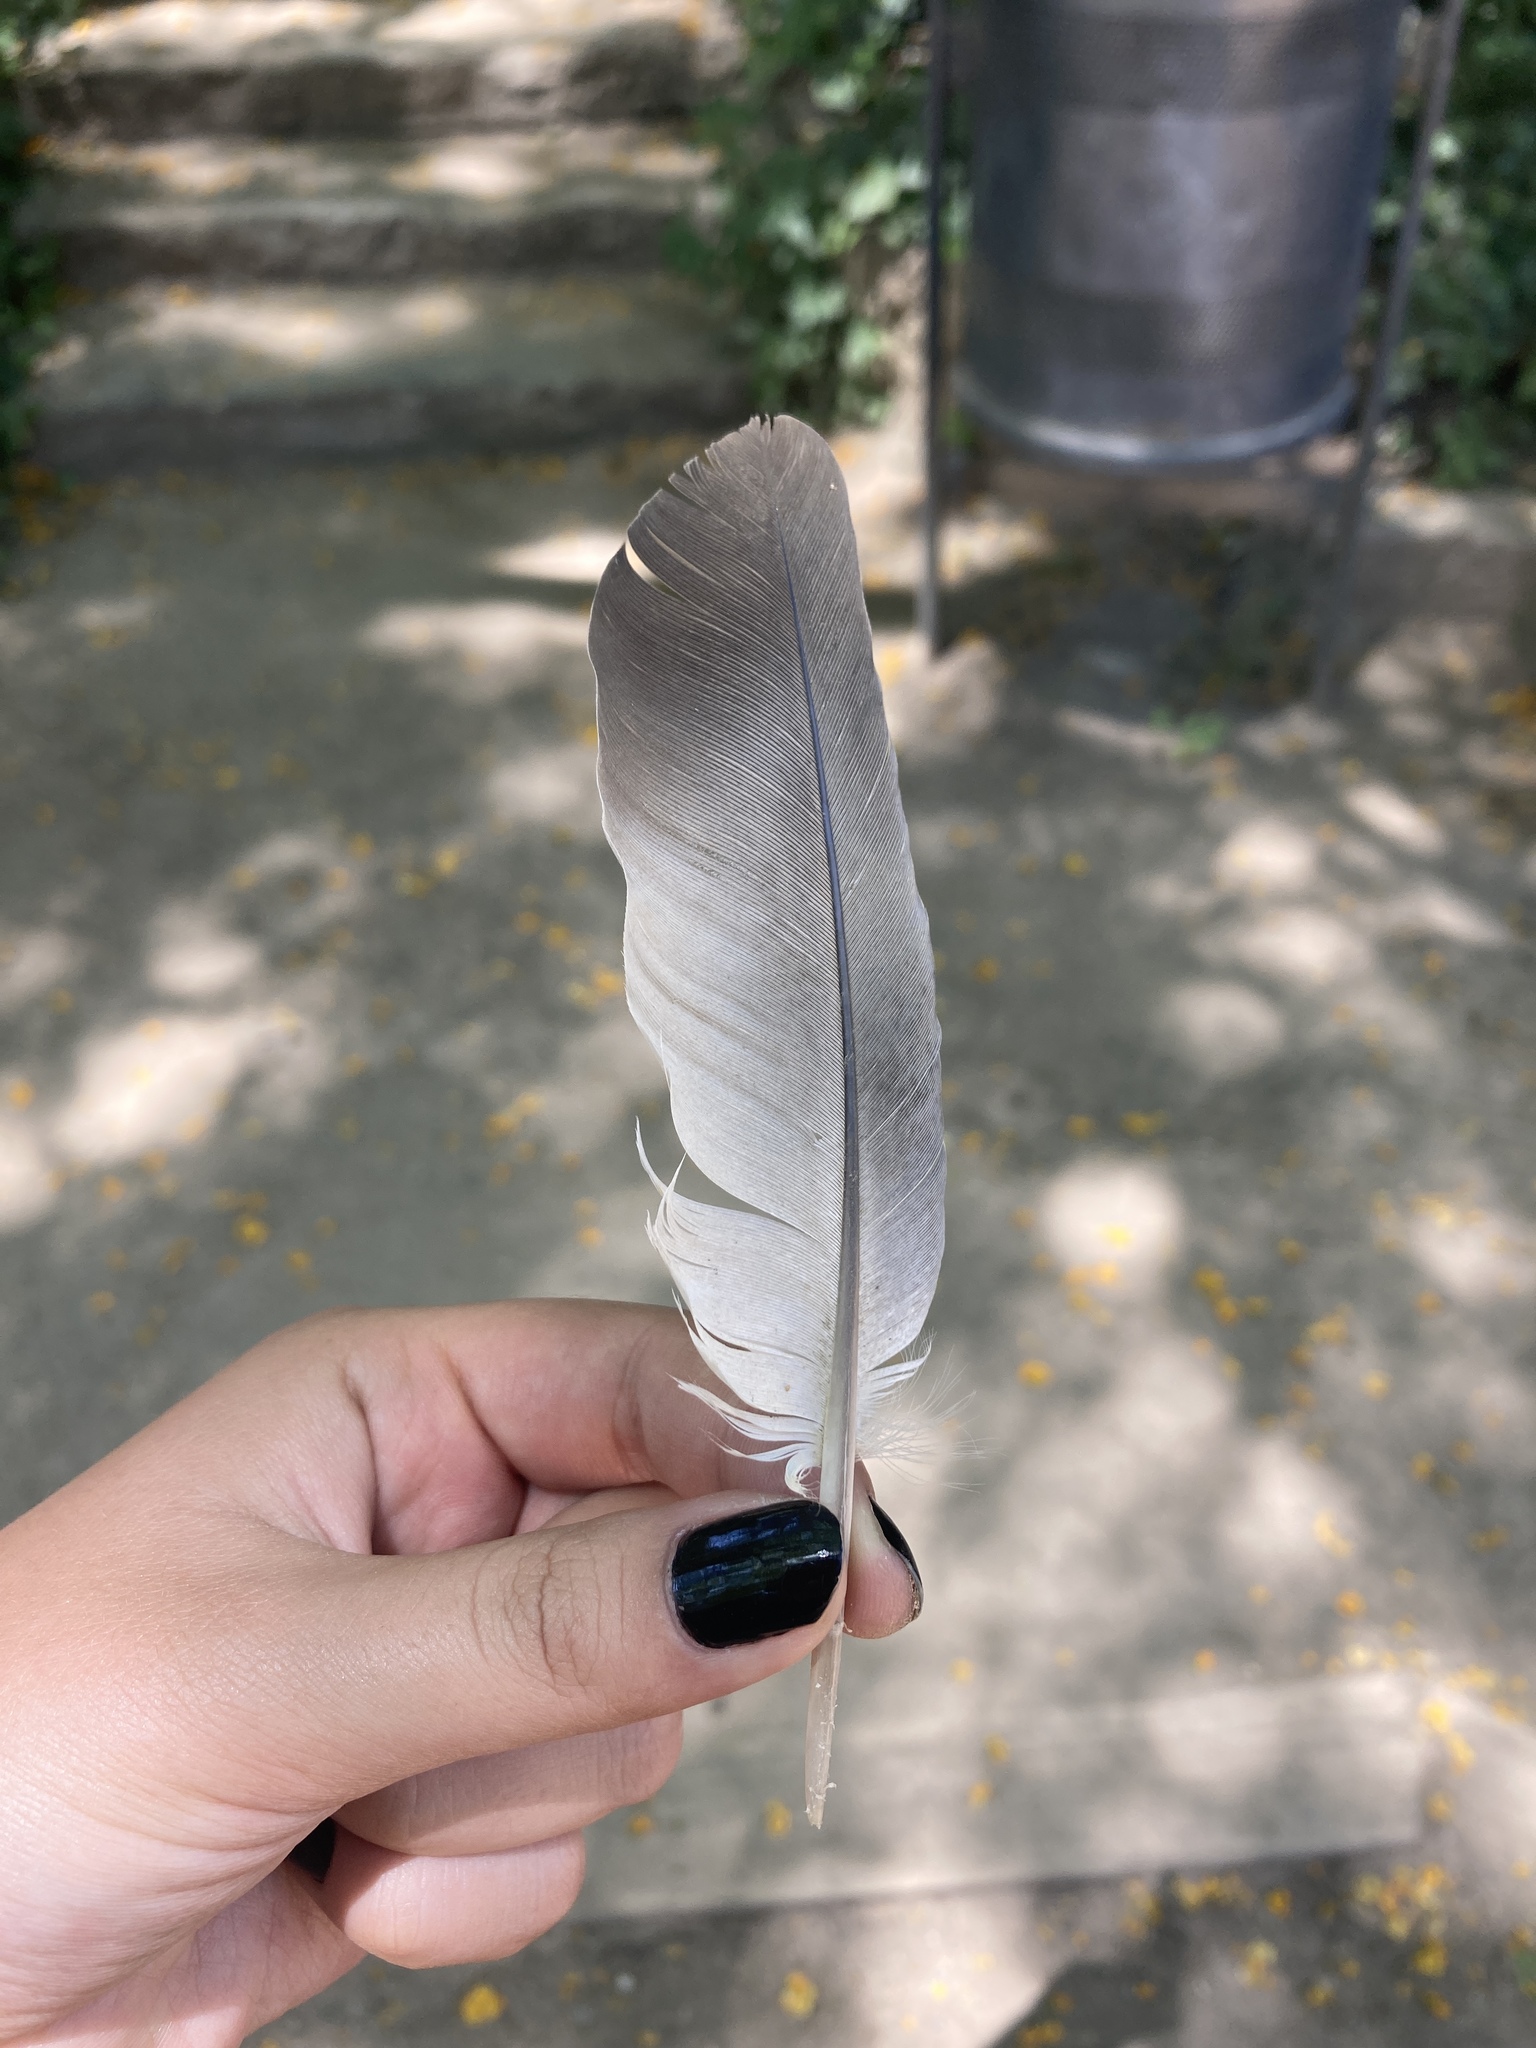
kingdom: Animalia
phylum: Chordata
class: Aves
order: Columbiformes
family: Columbidae
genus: Columba
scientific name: Columba livia
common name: Rock pigeon
